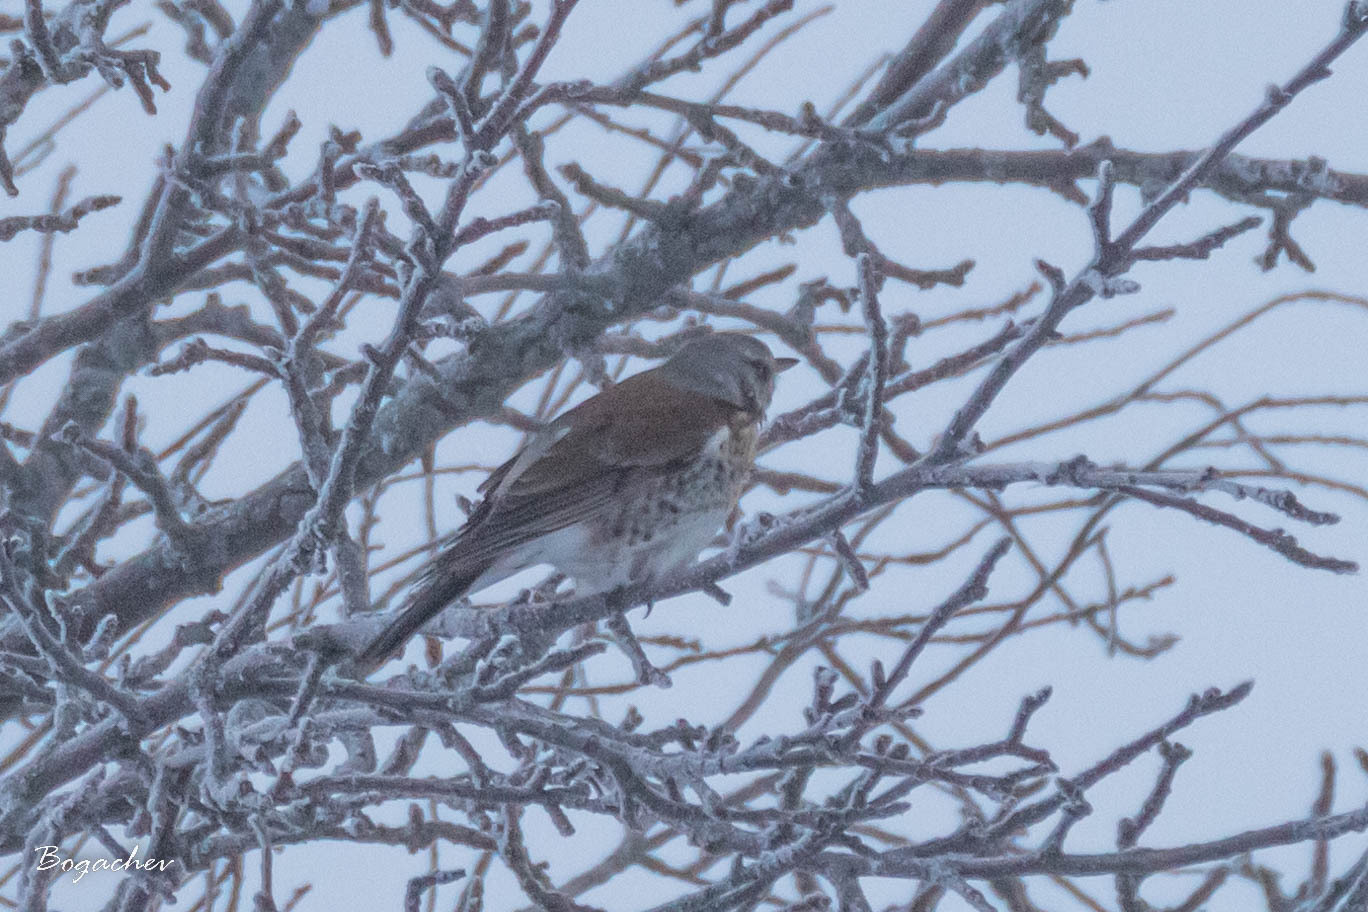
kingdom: Animalia
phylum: Chordata
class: Aves
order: Passeriformes
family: Turdidae
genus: Turdus
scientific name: Turdus pilaris
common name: Fieldfare
